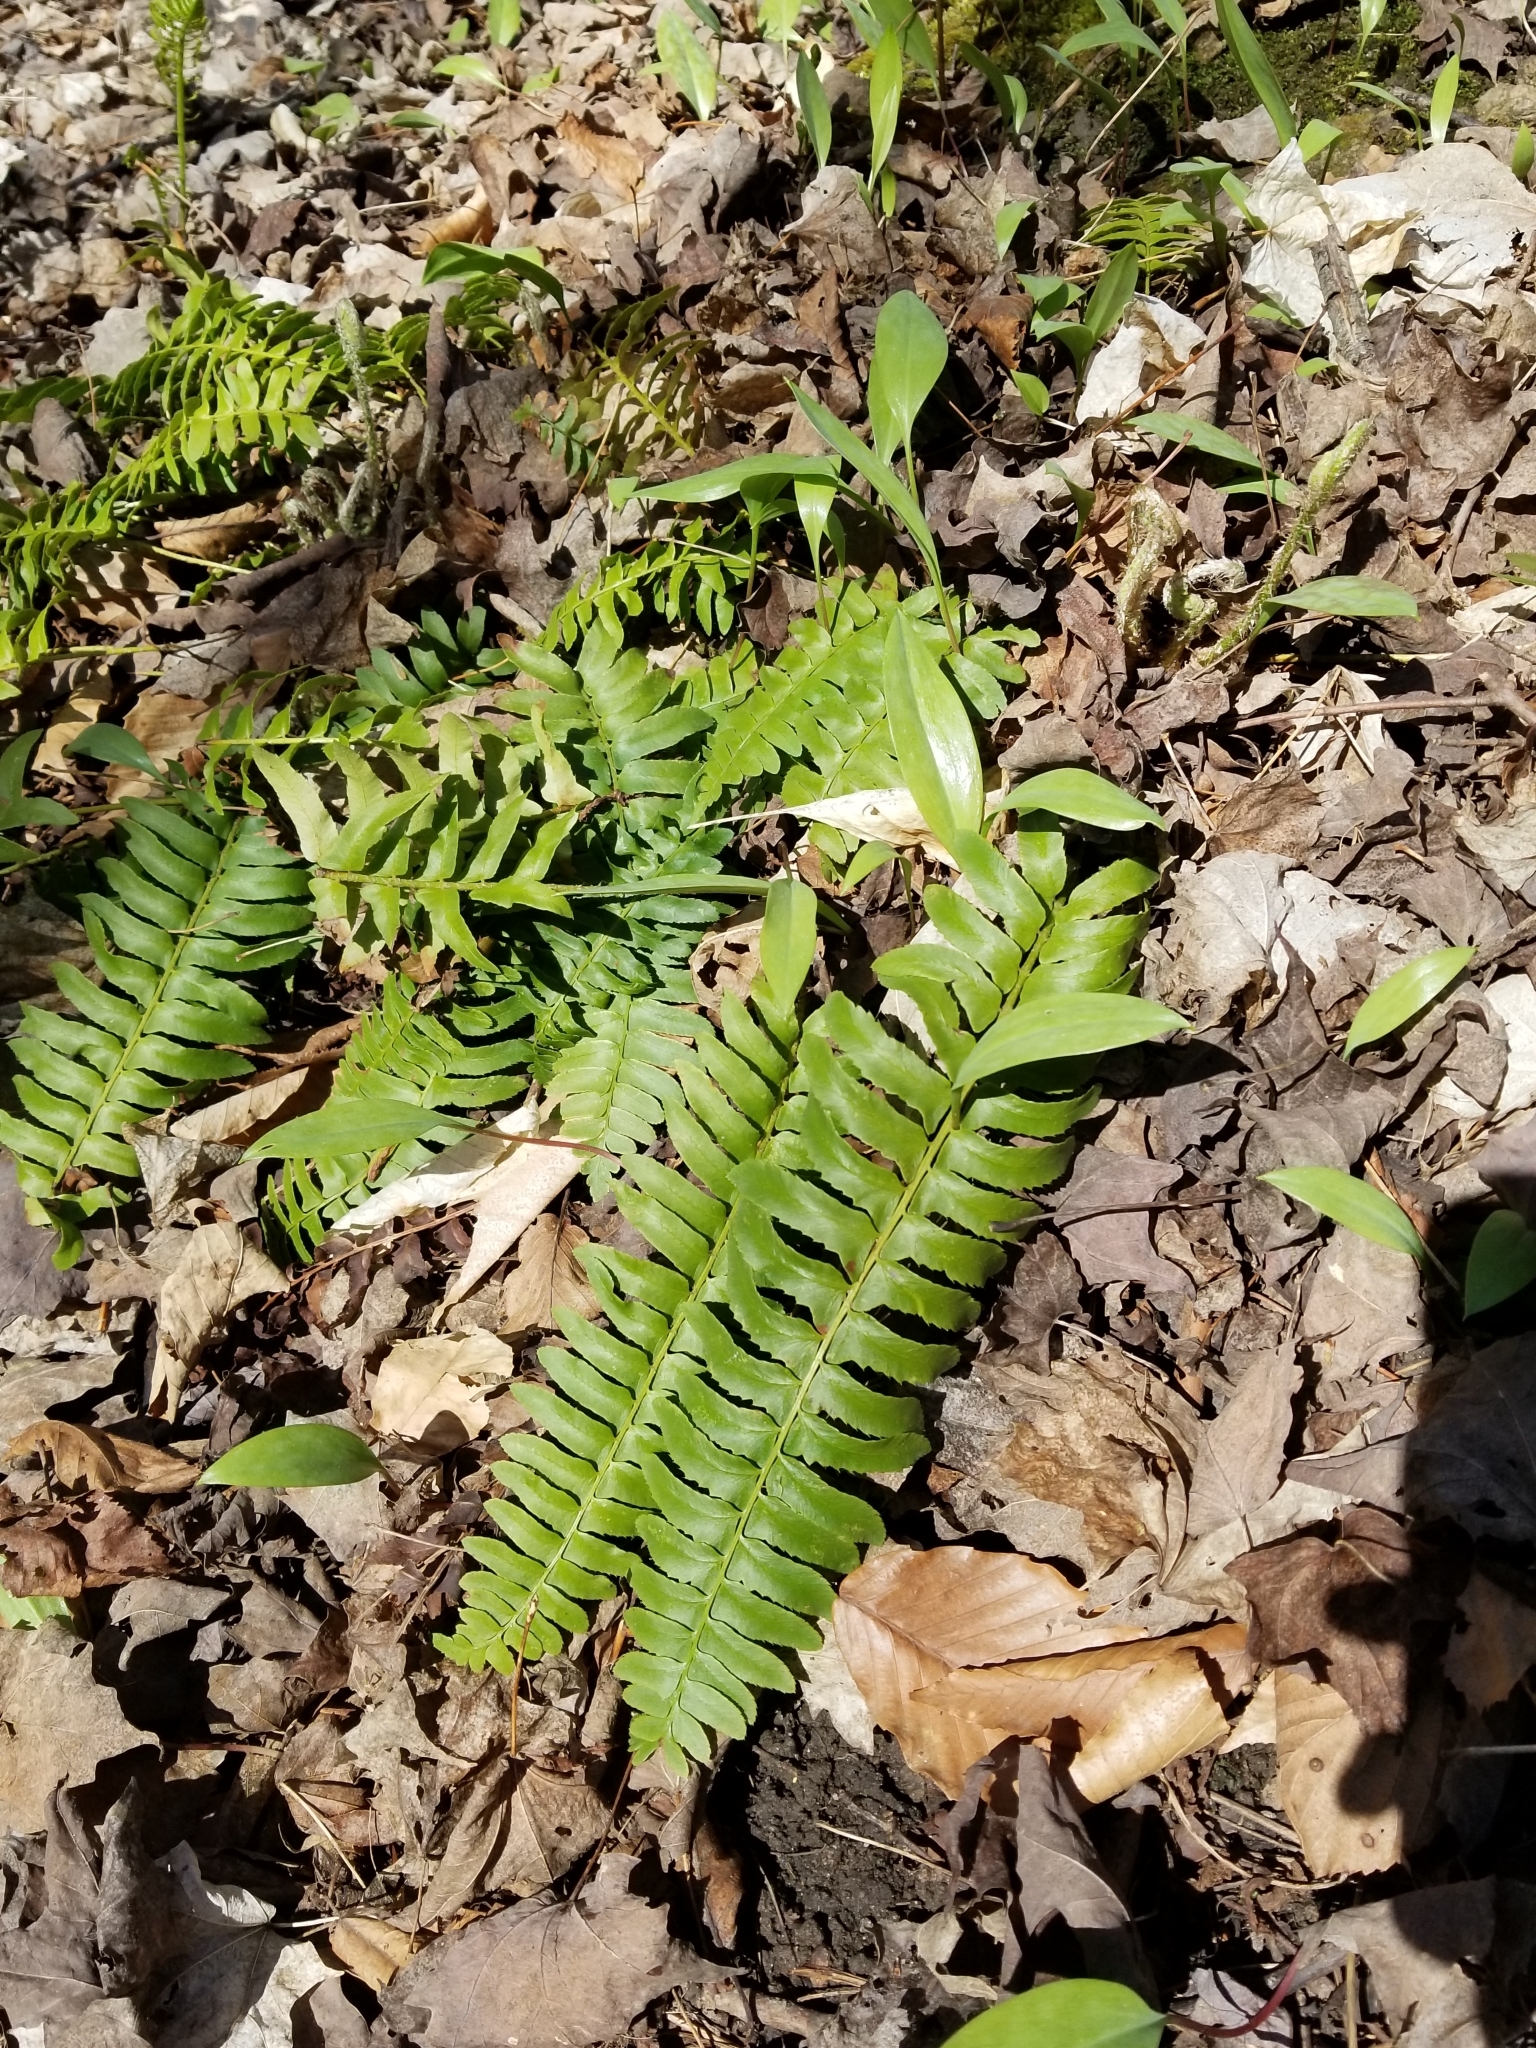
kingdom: Plantae
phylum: Tracheophyta
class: Polypodiopsida
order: Polypodiales
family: Dryopteridaceae
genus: Polystichum
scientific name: Polystichum acrostichoides
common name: Christmas fern
